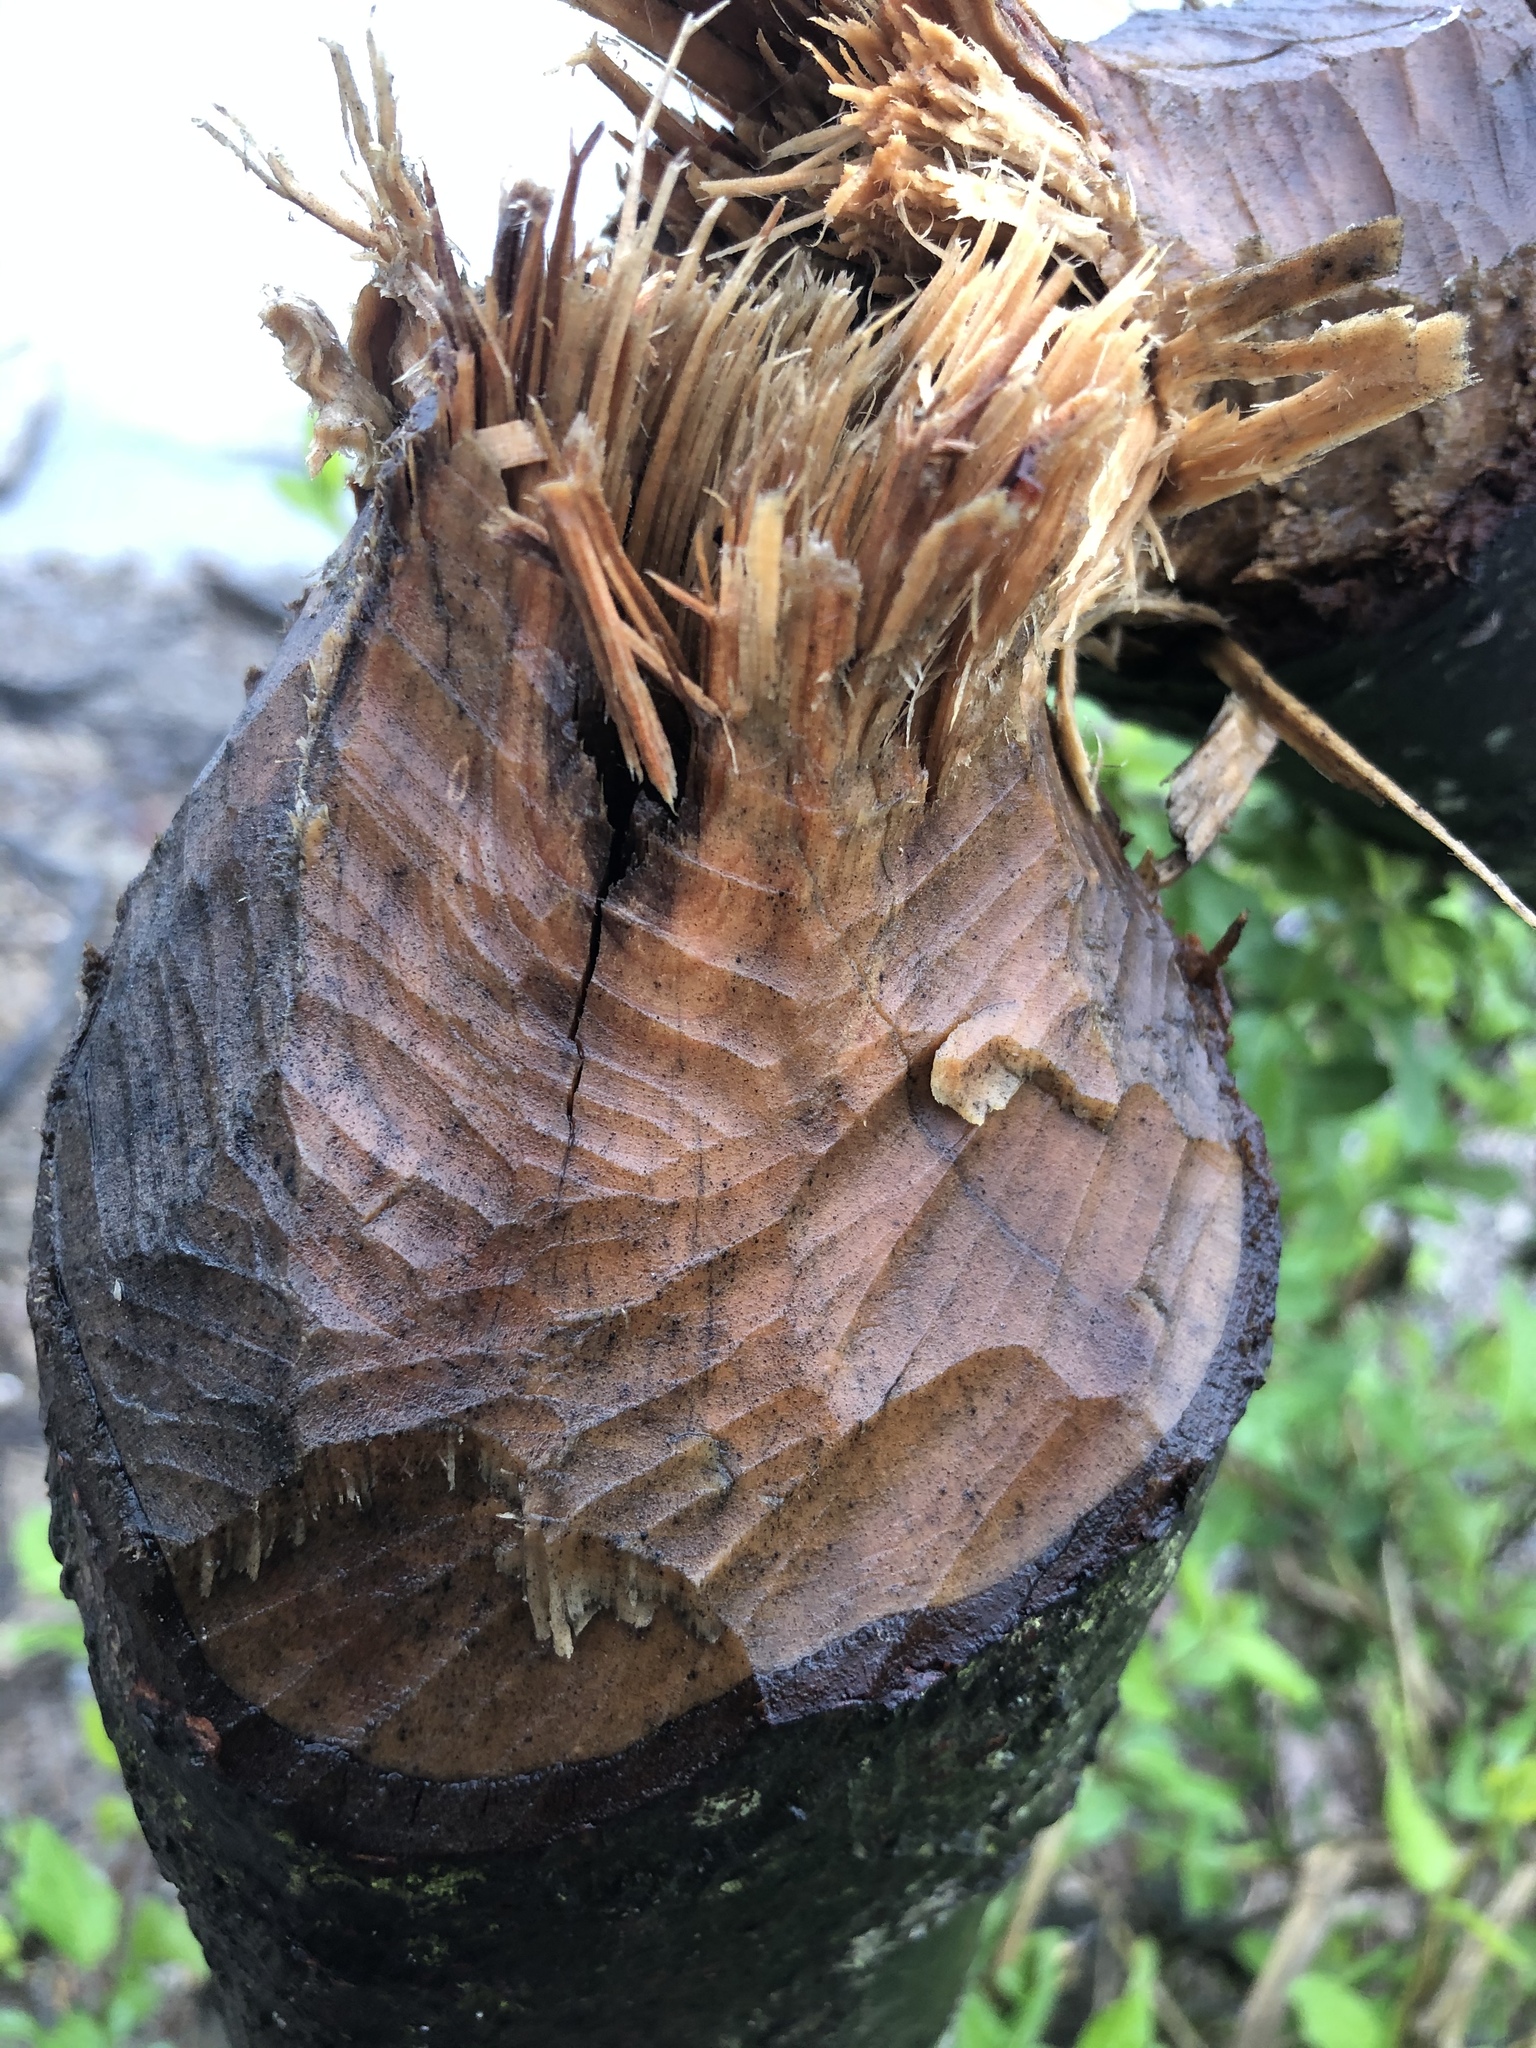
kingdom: Animalia
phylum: Chordata
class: Mammalia
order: Rodentia
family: Castoridae
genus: Castor
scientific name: Castor canadensis
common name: American beaver
